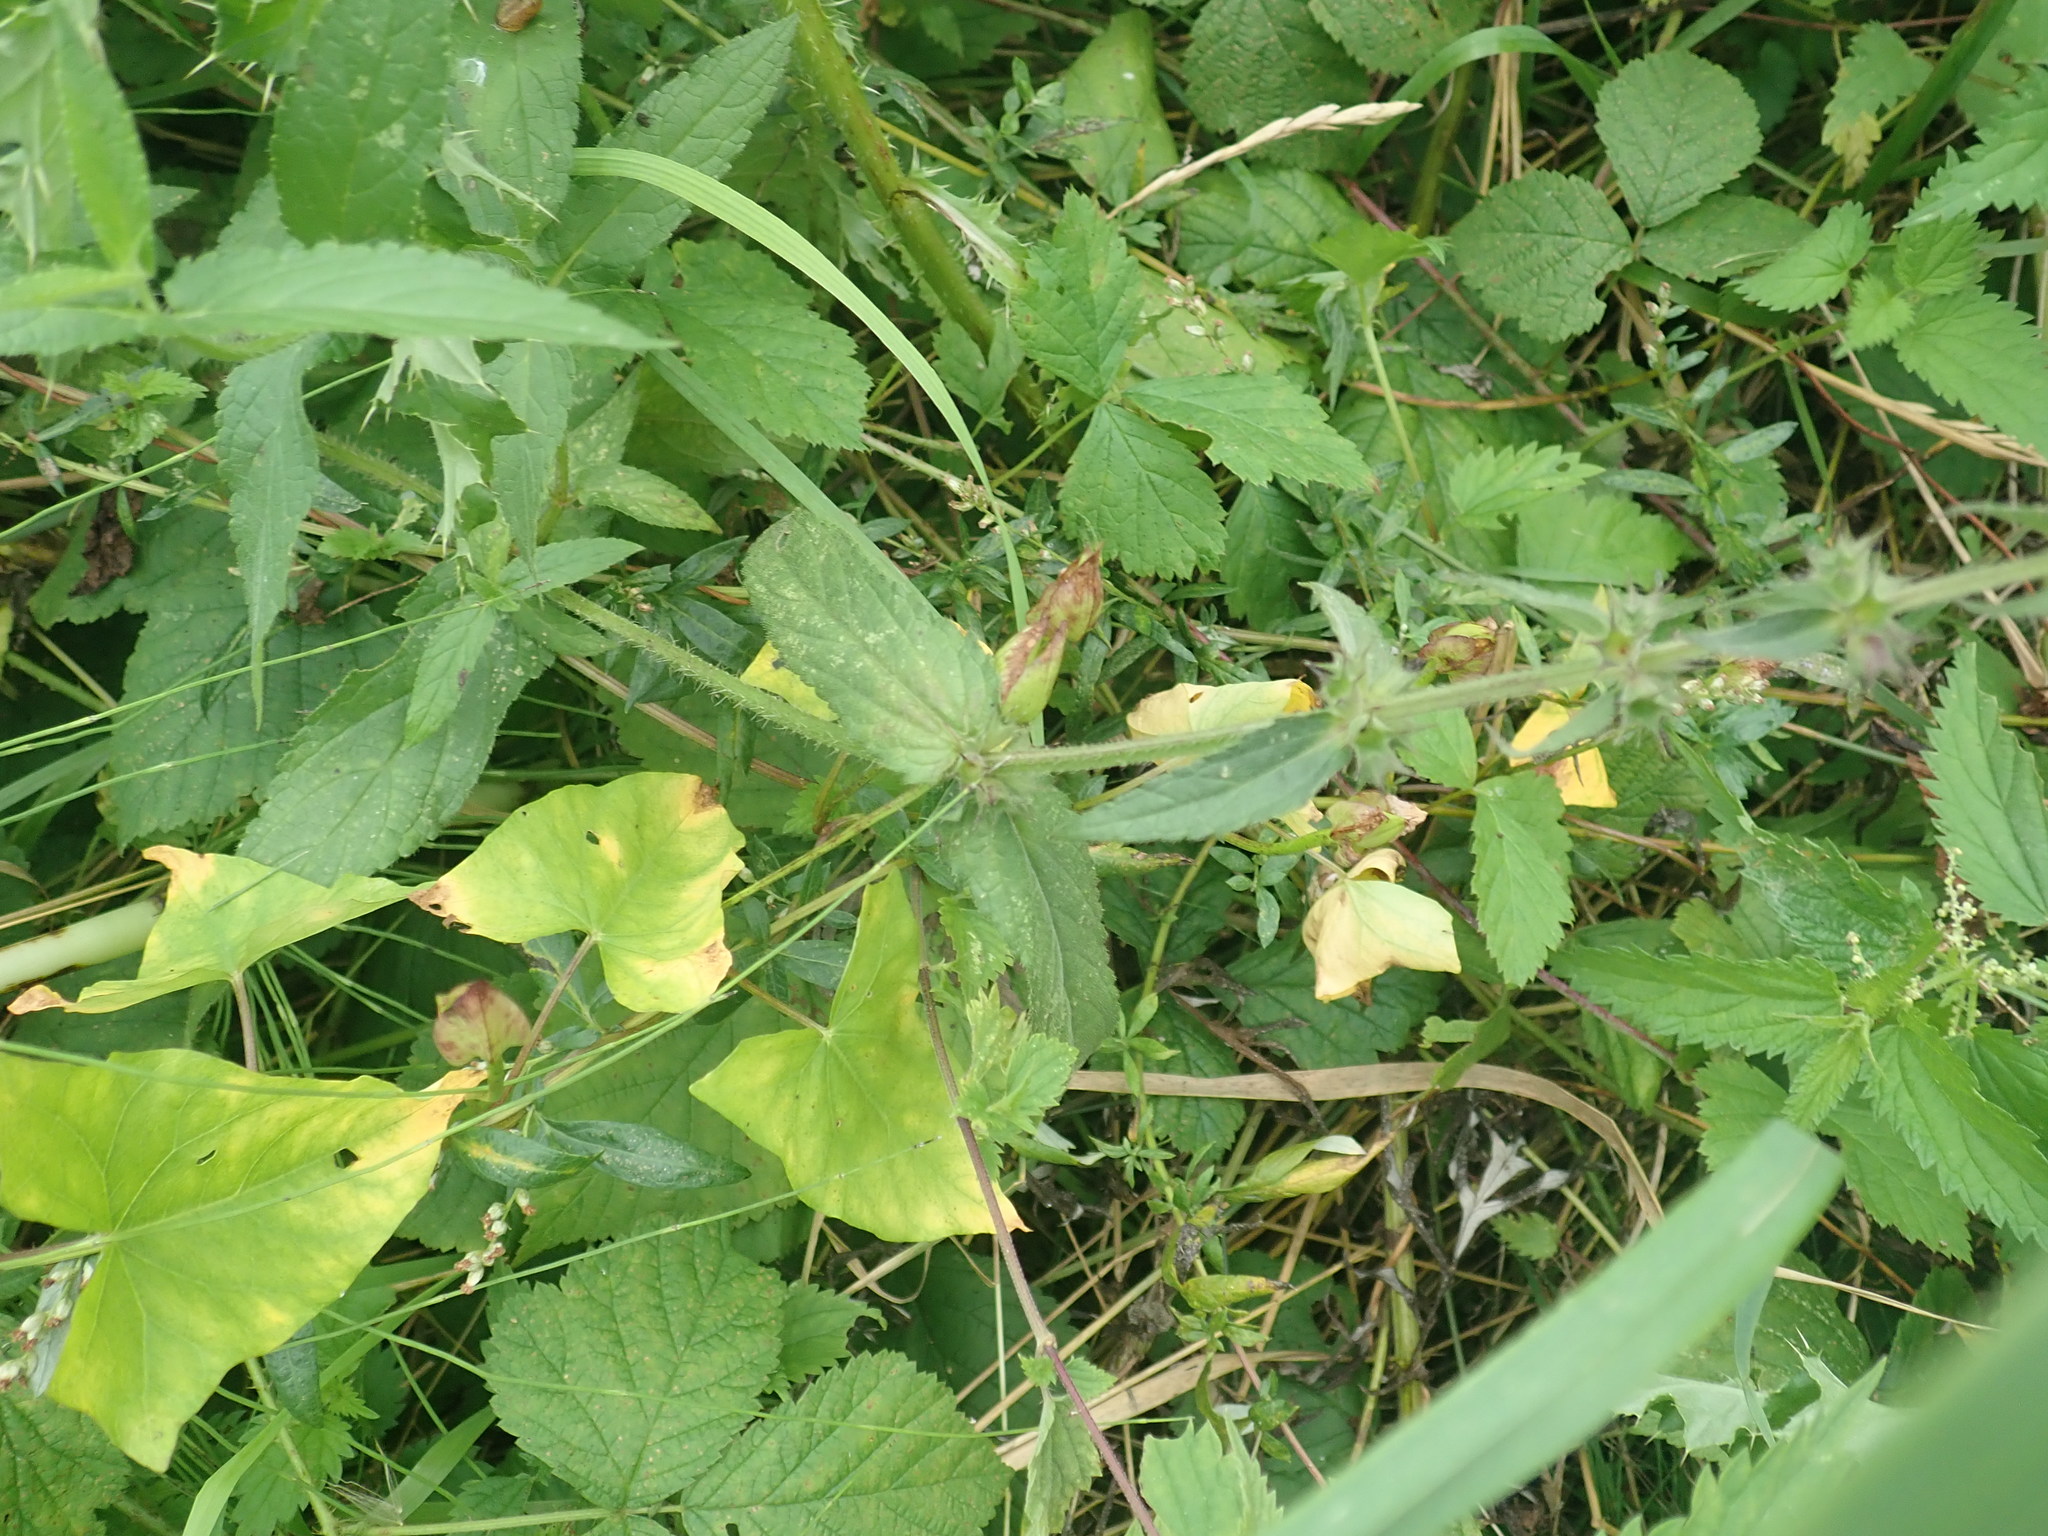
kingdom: Plantae
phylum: Tracheophyta
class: Magnoliopsida
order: Lamiales
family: Lamiaceae
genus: Stachys
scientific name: Stachys palustris
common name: Marsh woundwort
